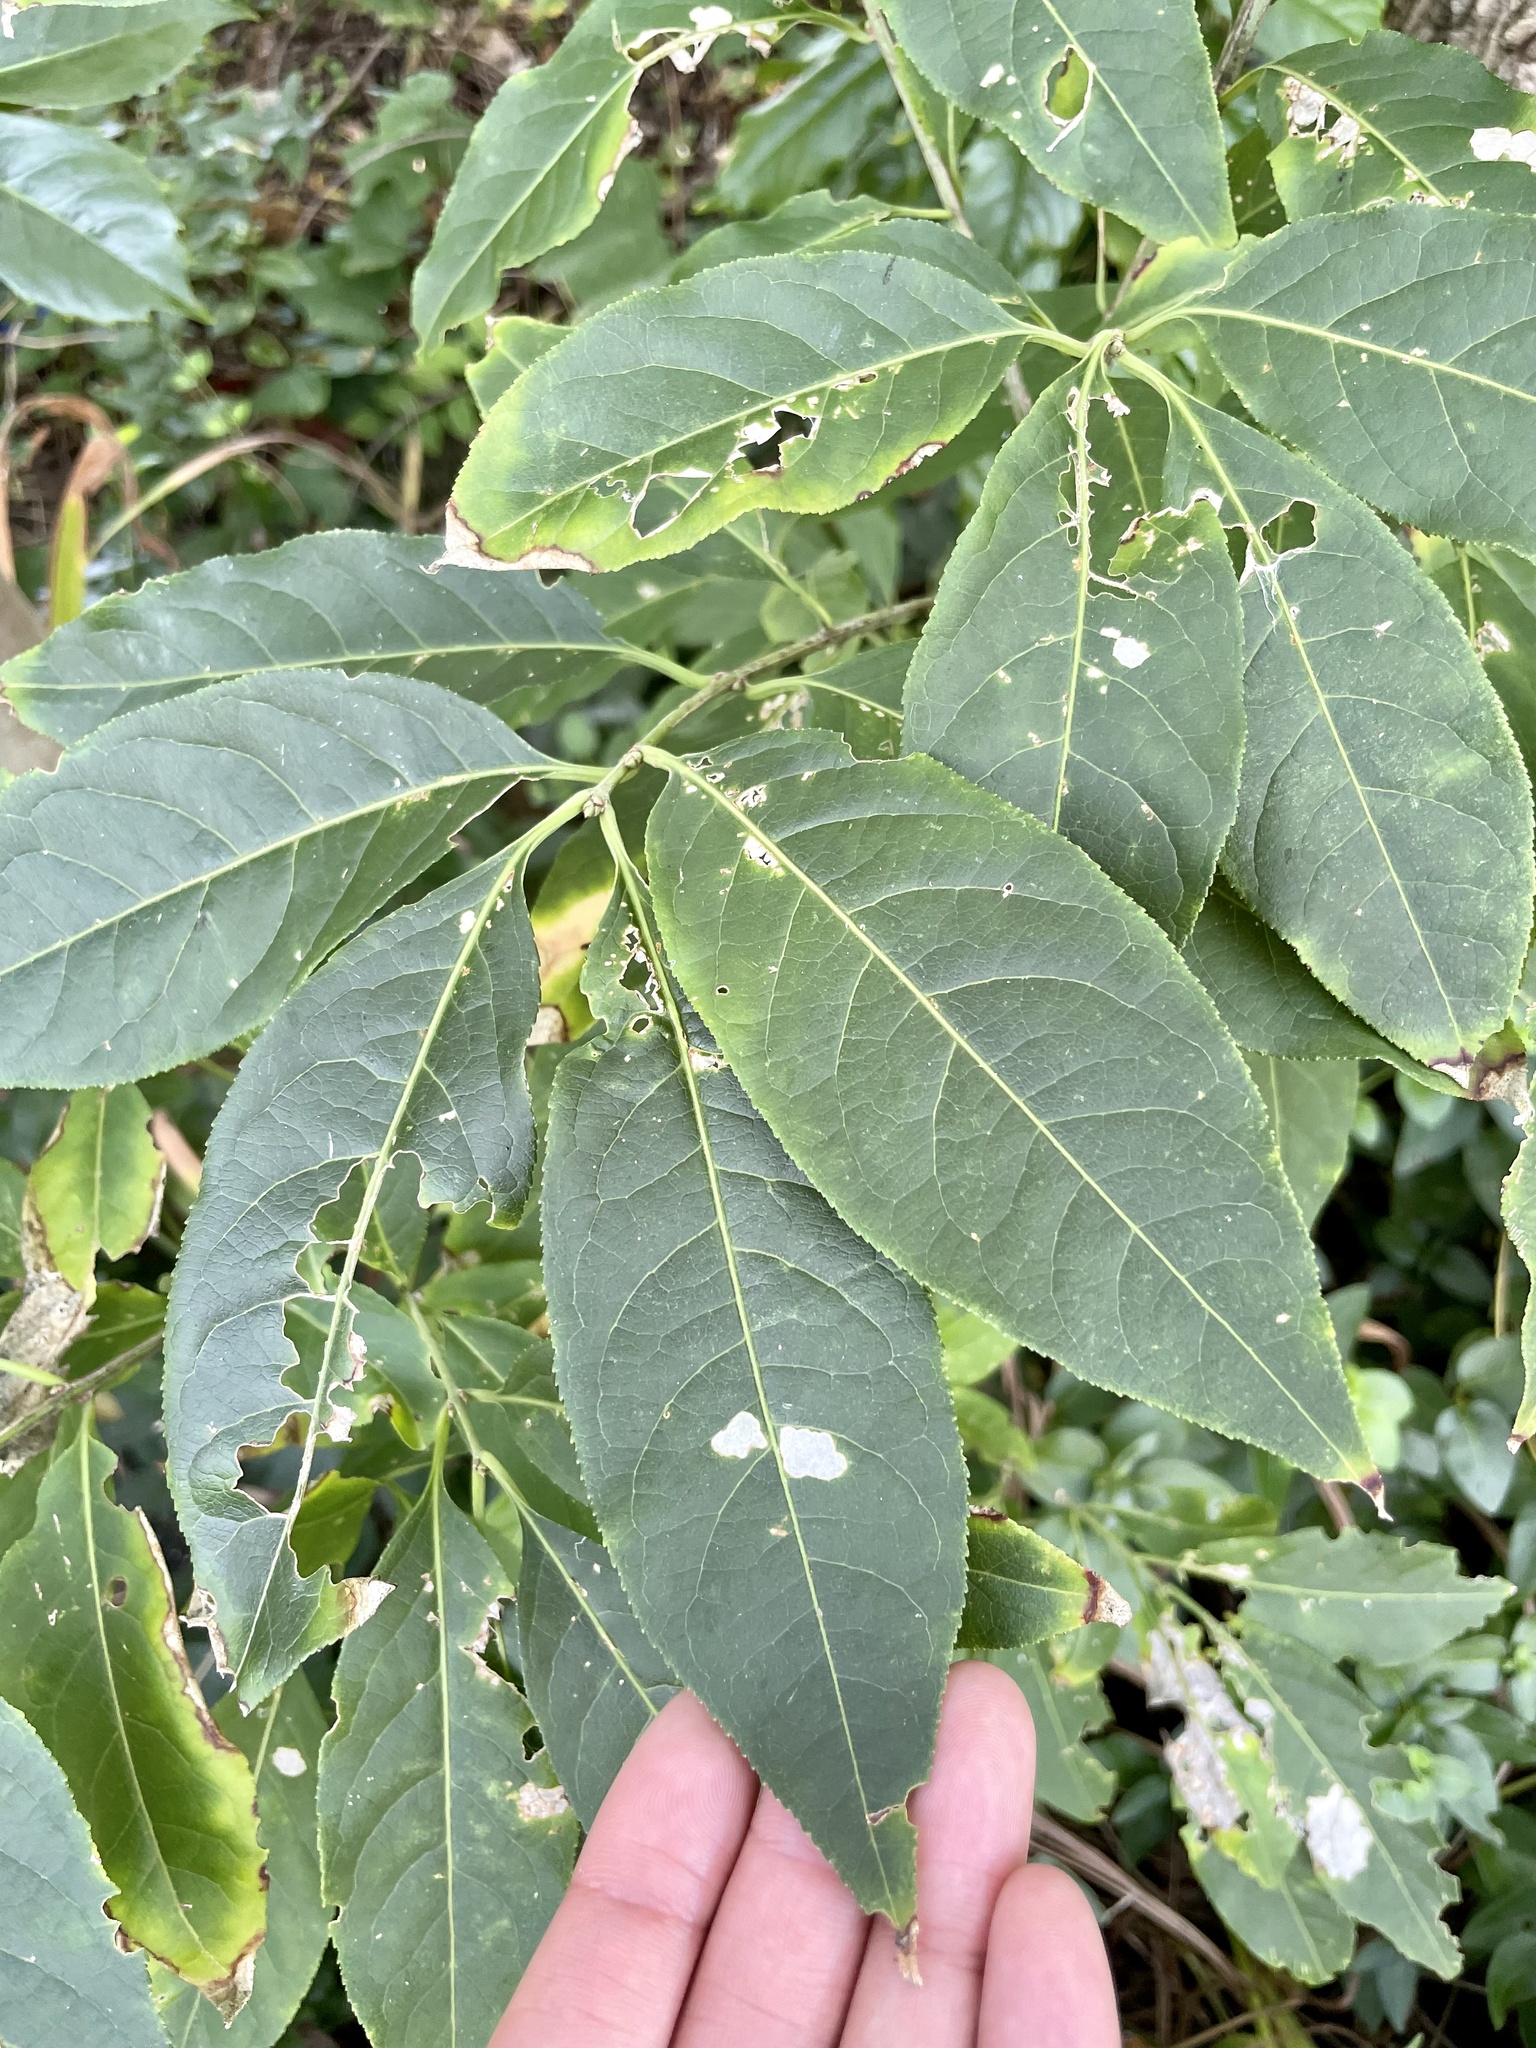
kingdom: Plantae
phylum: Tracheophyta
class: Magnoliopsida
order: Celastrales
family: Celastraceae
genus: Euonymus
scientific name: Euonymus hamiltonianus
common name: Hamilton's spindletree
